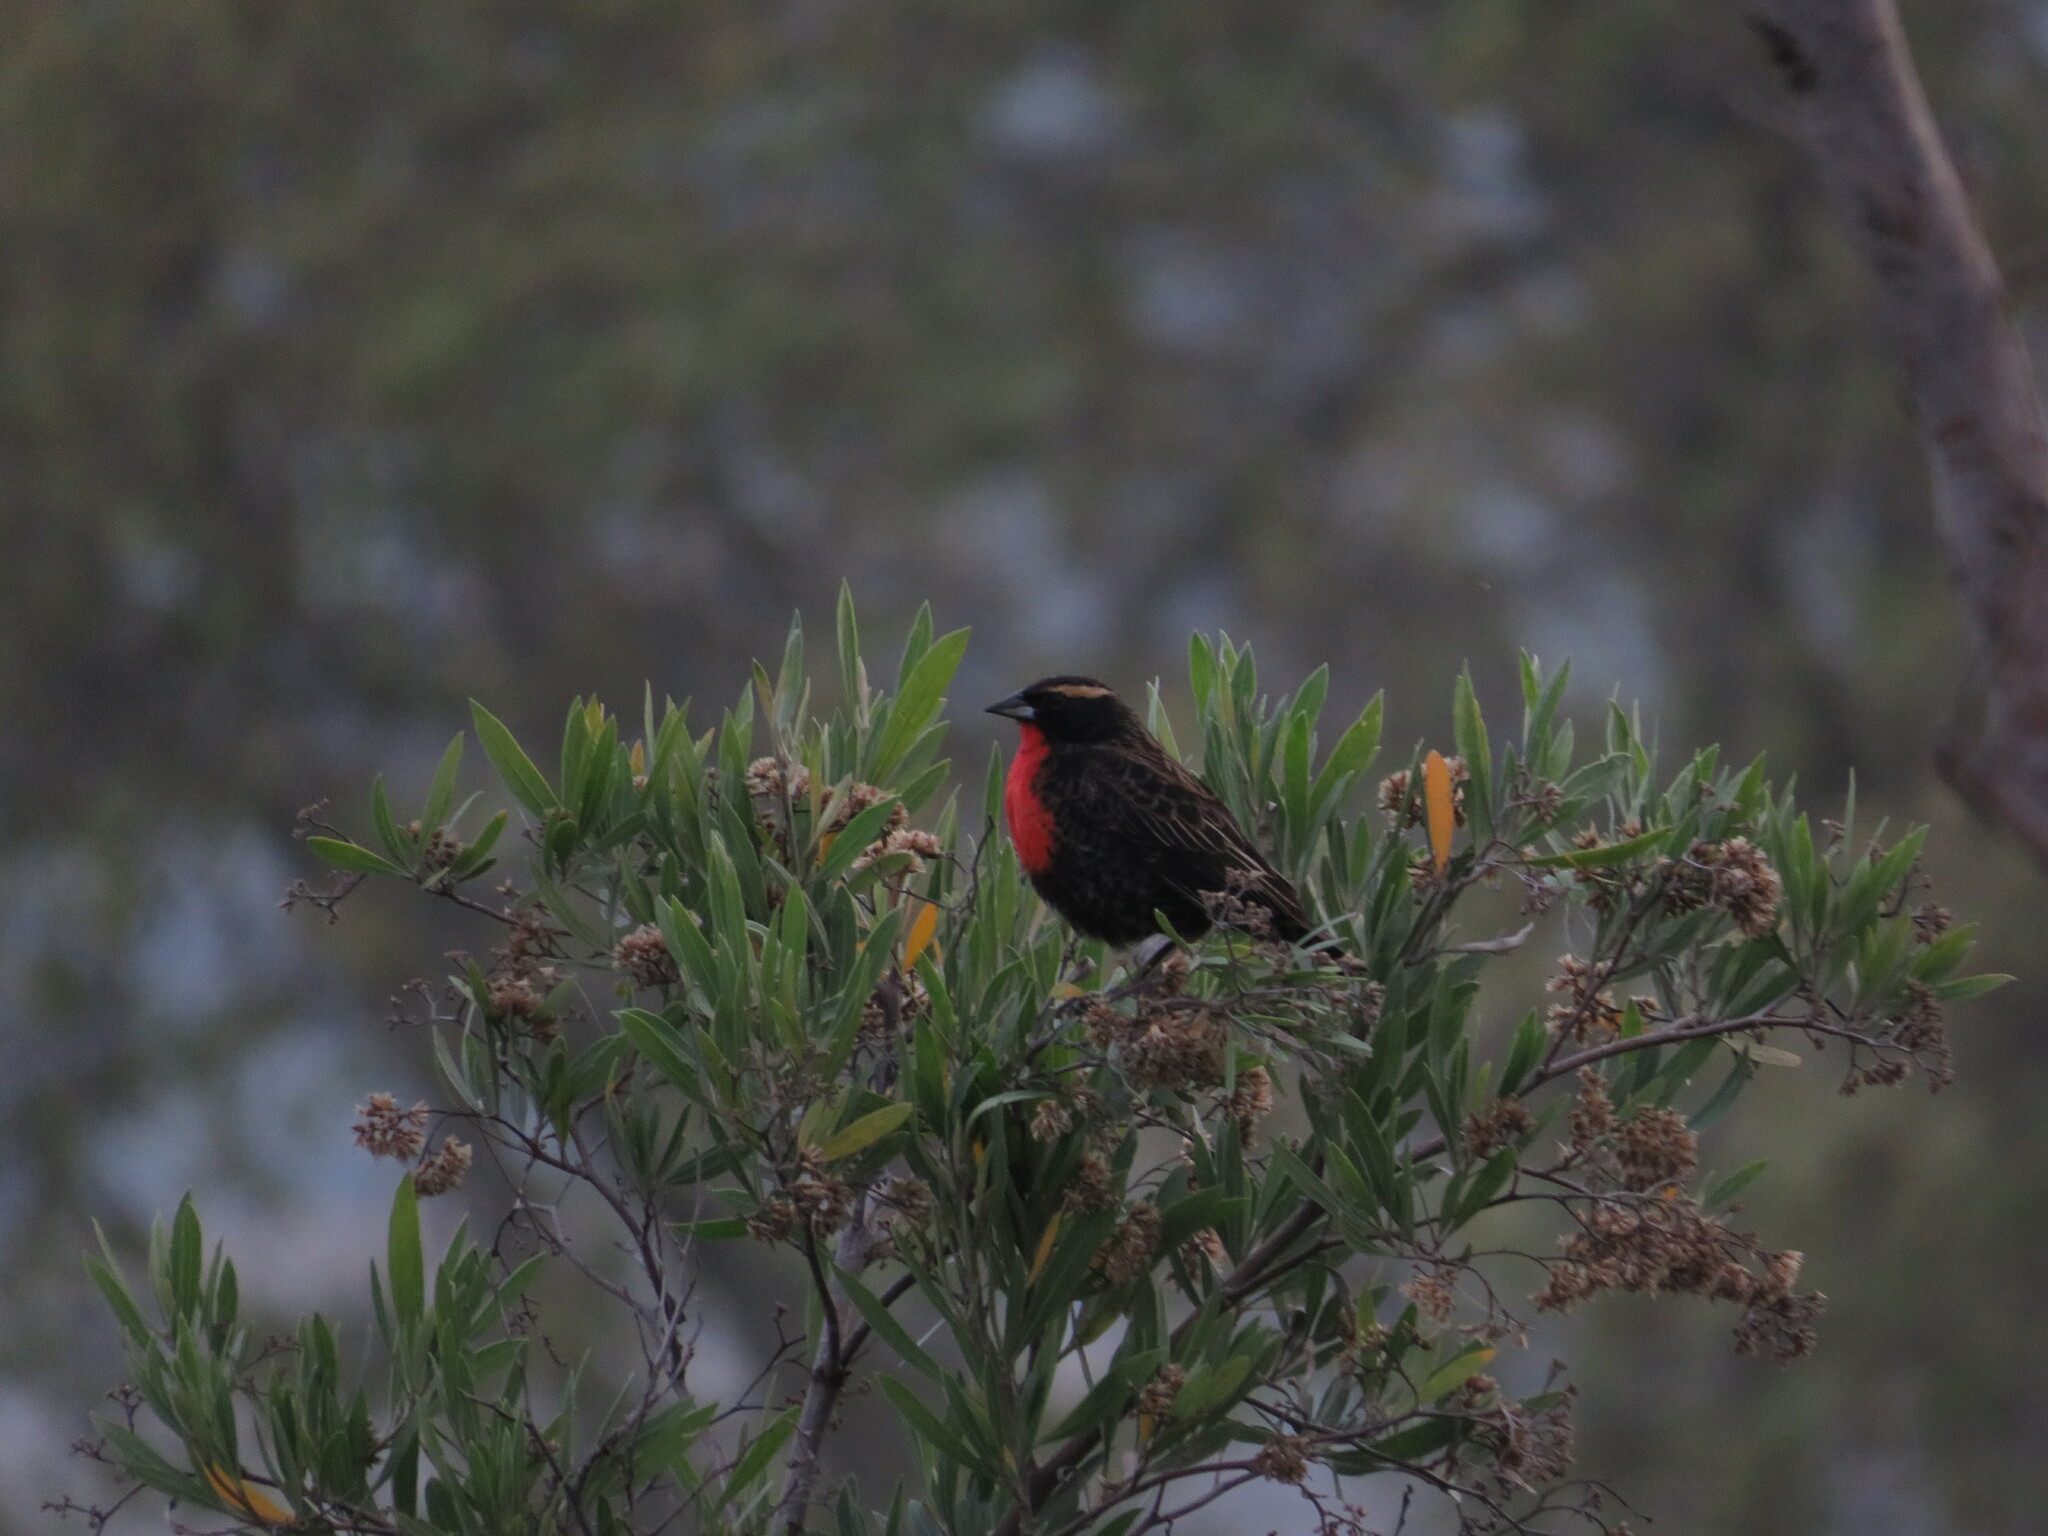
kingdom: Animalia
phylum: Chordata
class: Aves
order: Passeriformes
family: Icteridae
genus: Sturnella
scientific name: Sturnella superciliaris
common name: White-browed blackbird
